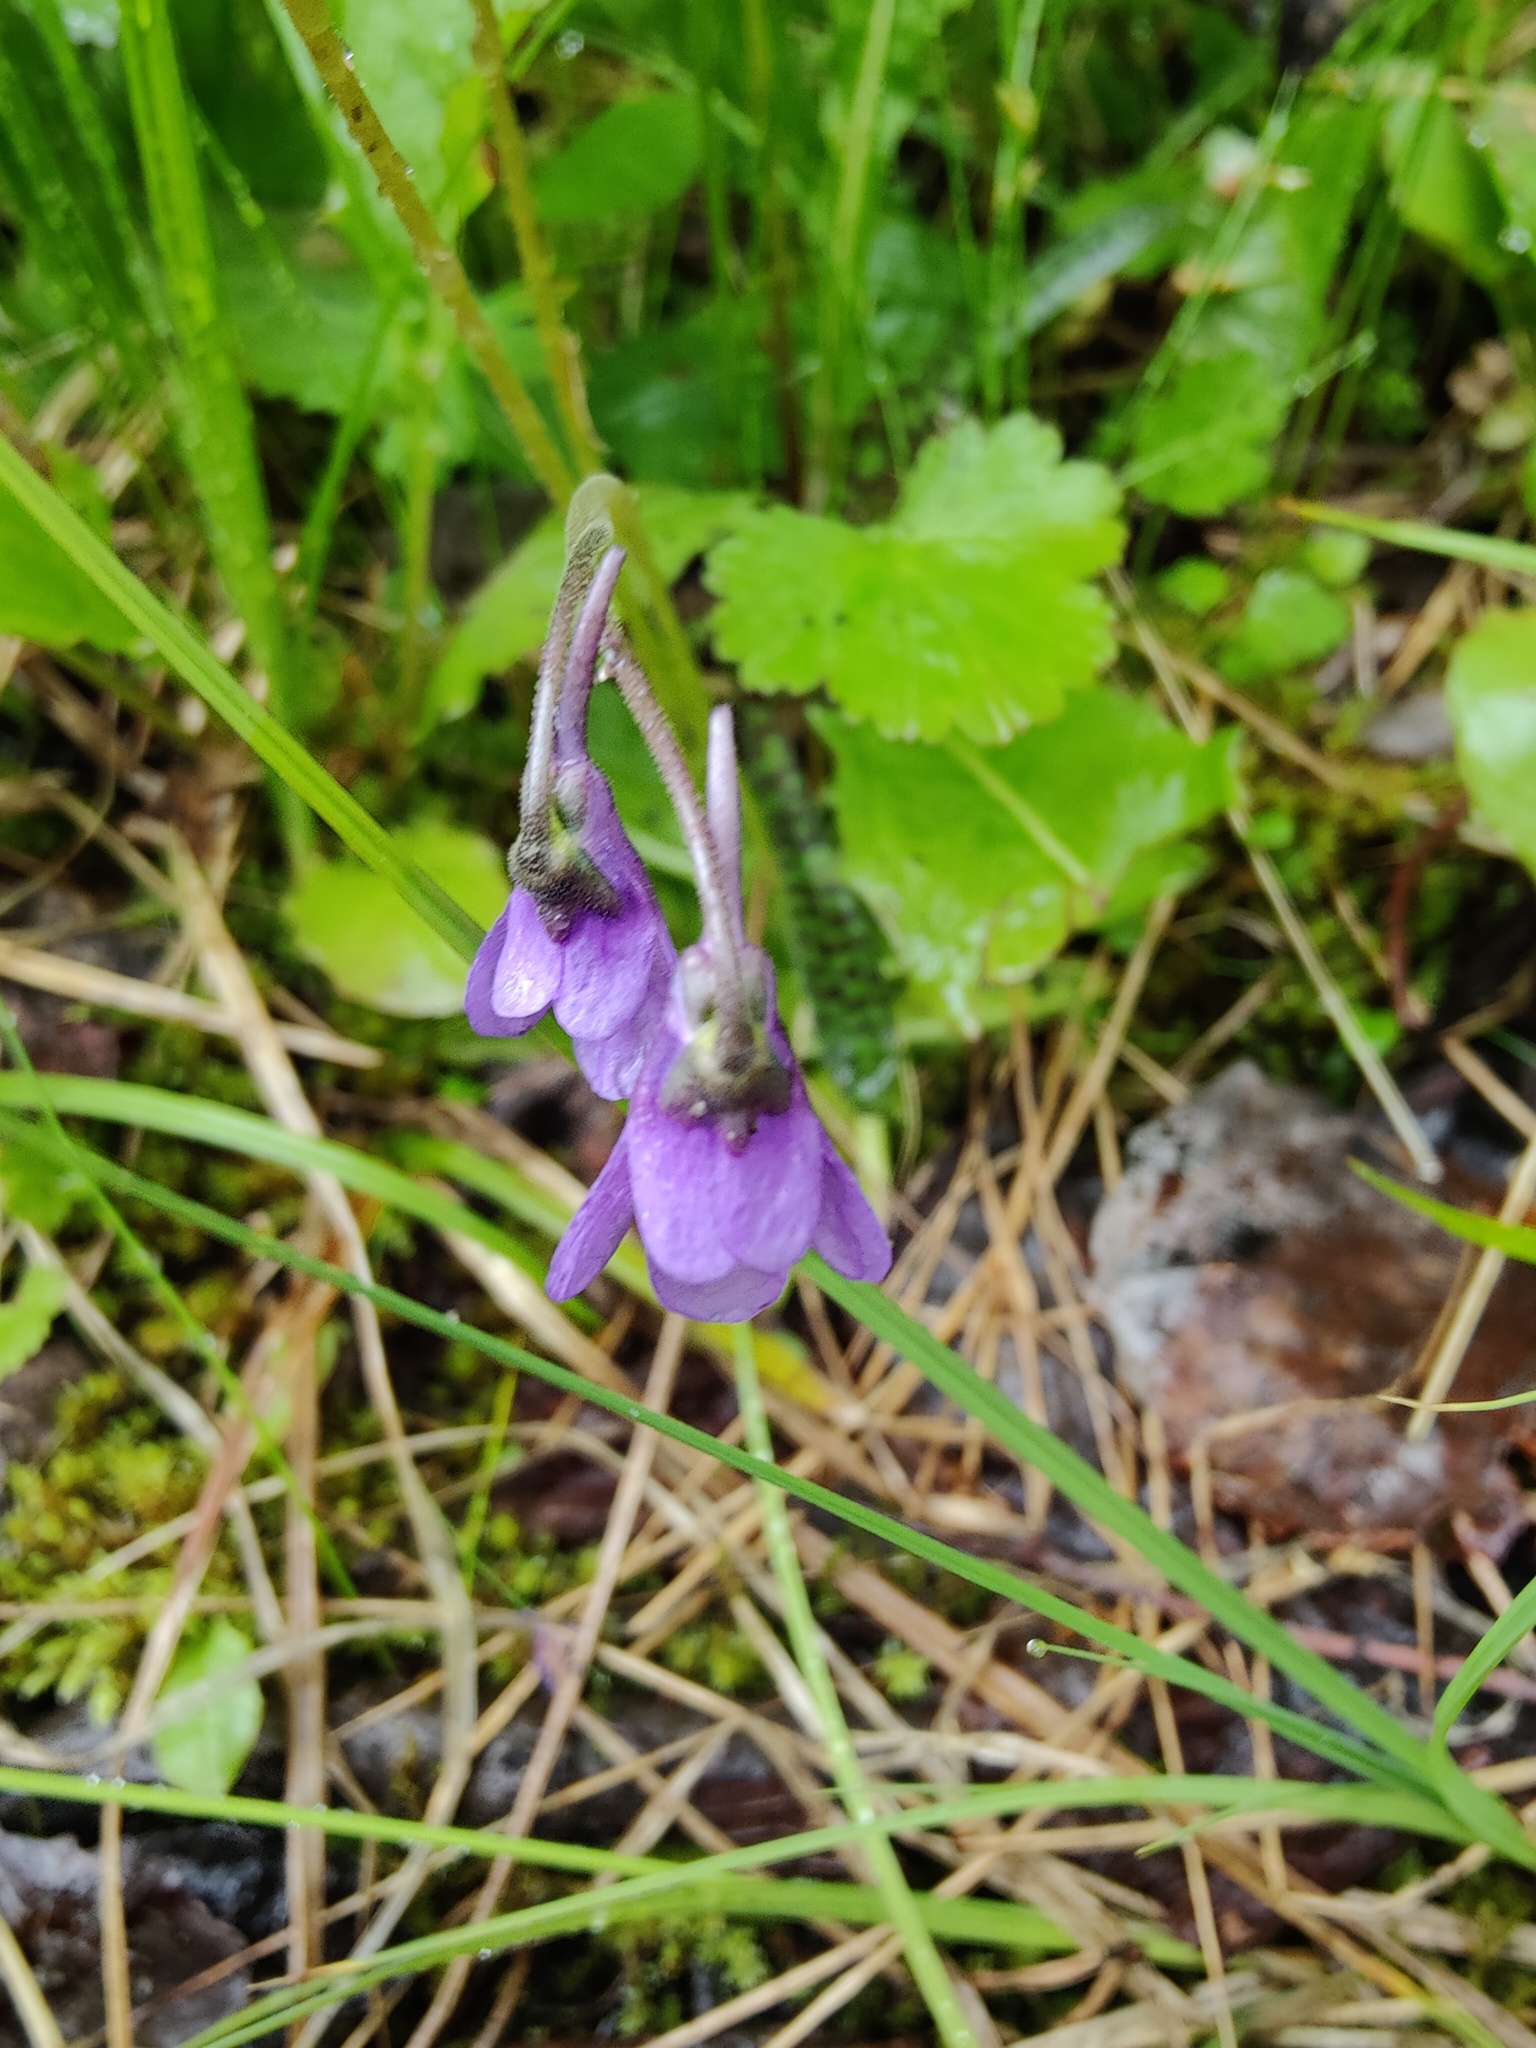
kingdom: Plantae
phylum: Tracheophyta
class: Magnoliopsida
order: Lamiales
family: Lentibulariaceae
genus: Pinguicula
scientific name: Pinguicula vulgaris
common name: Common butterwort
